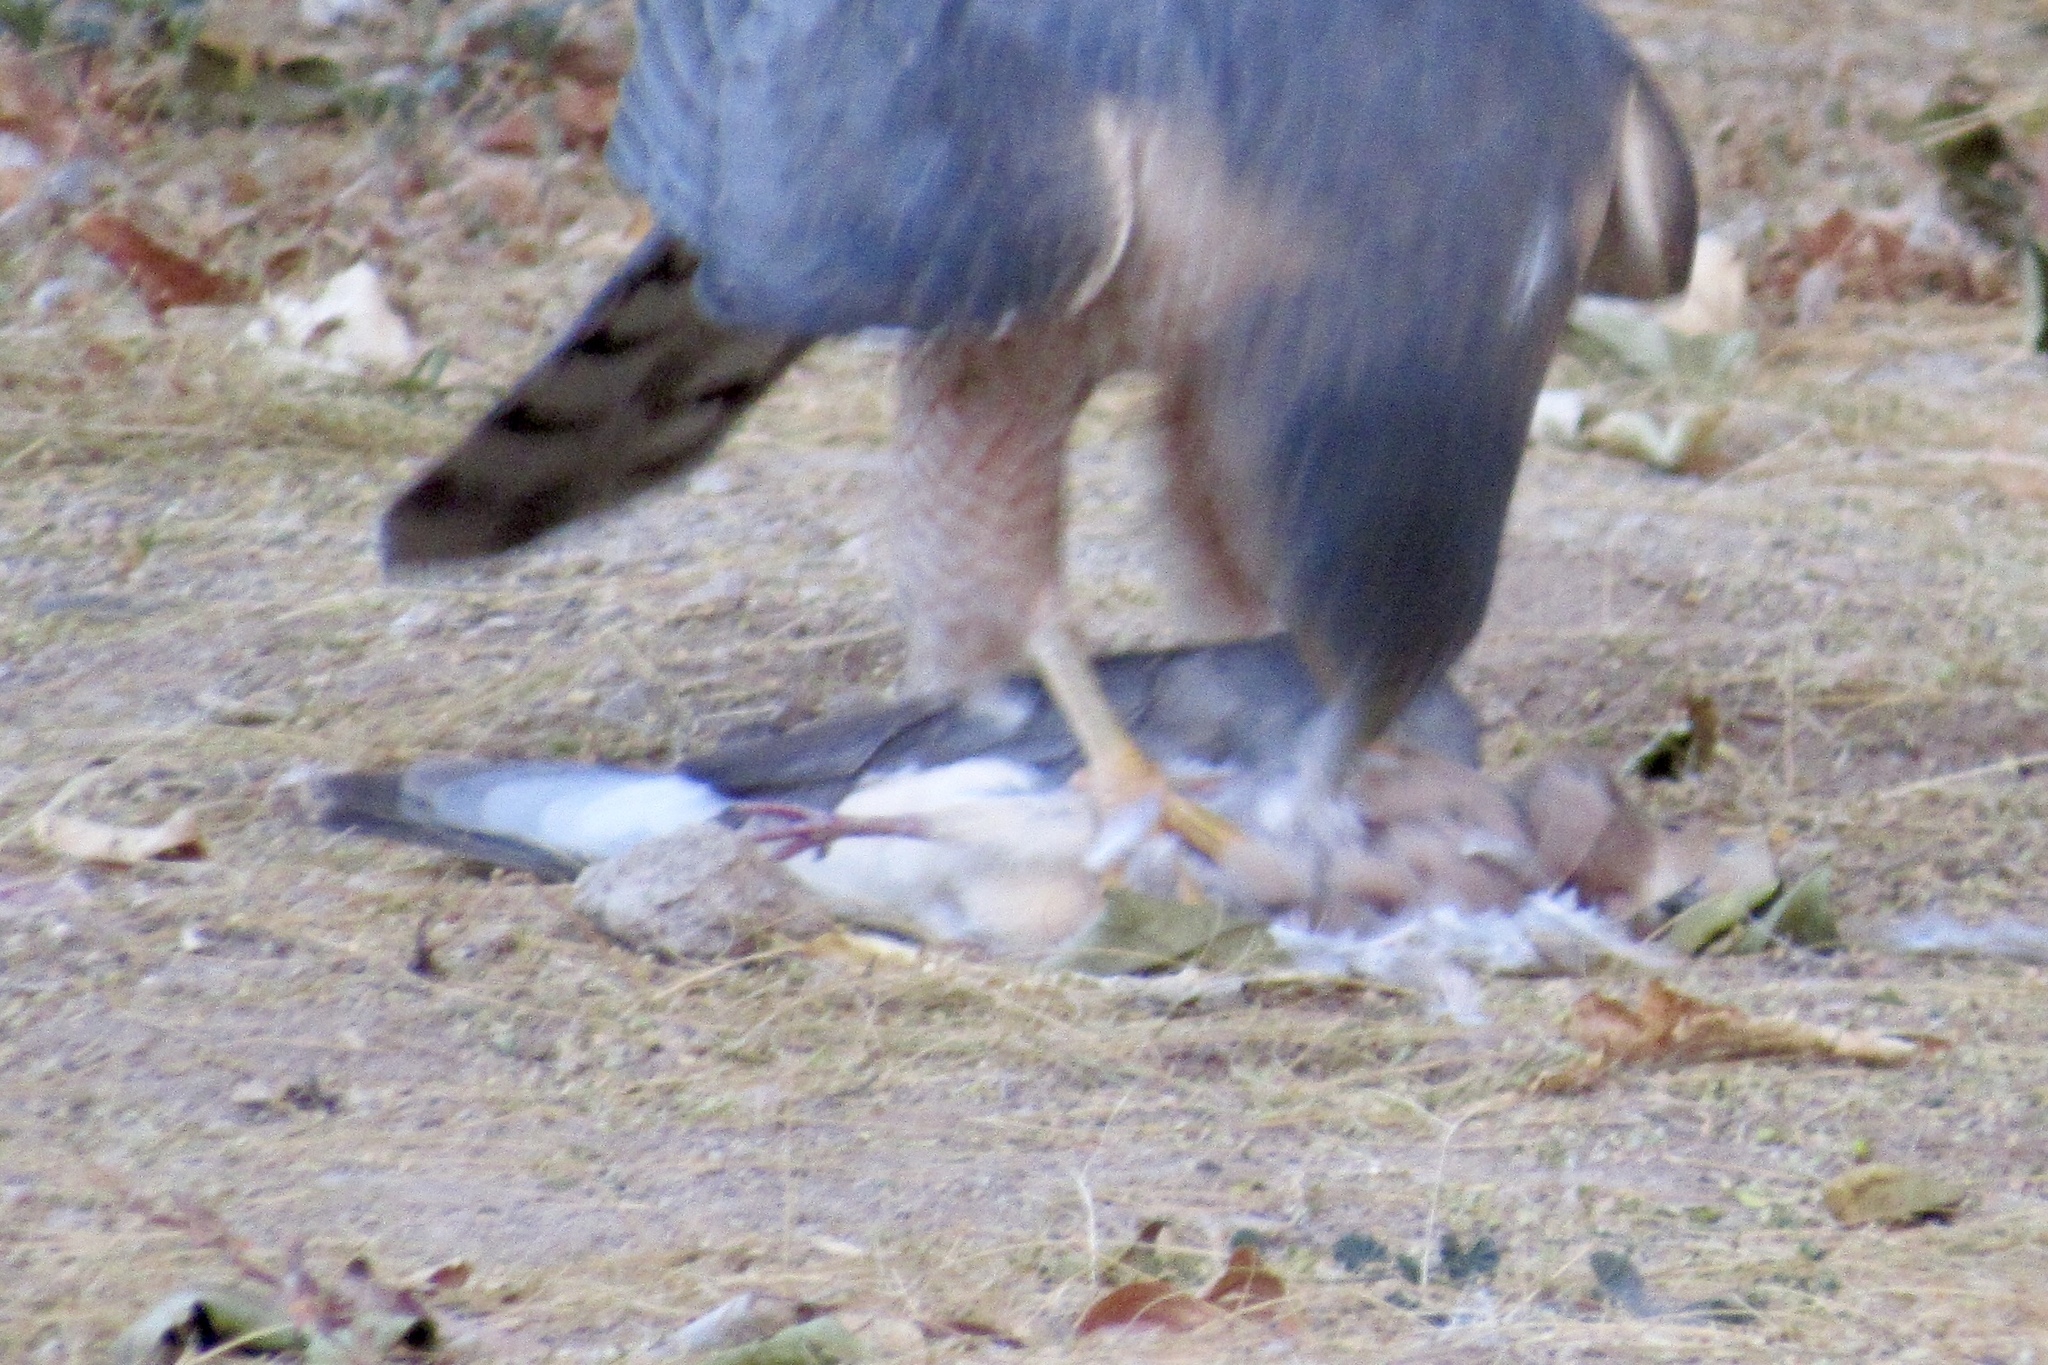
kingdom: Animalia
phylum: Chordata
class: Aves
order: Columbiformes
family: Columbidae
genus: Zenaida
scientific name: Zenaida macroura
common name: Mourning dove
